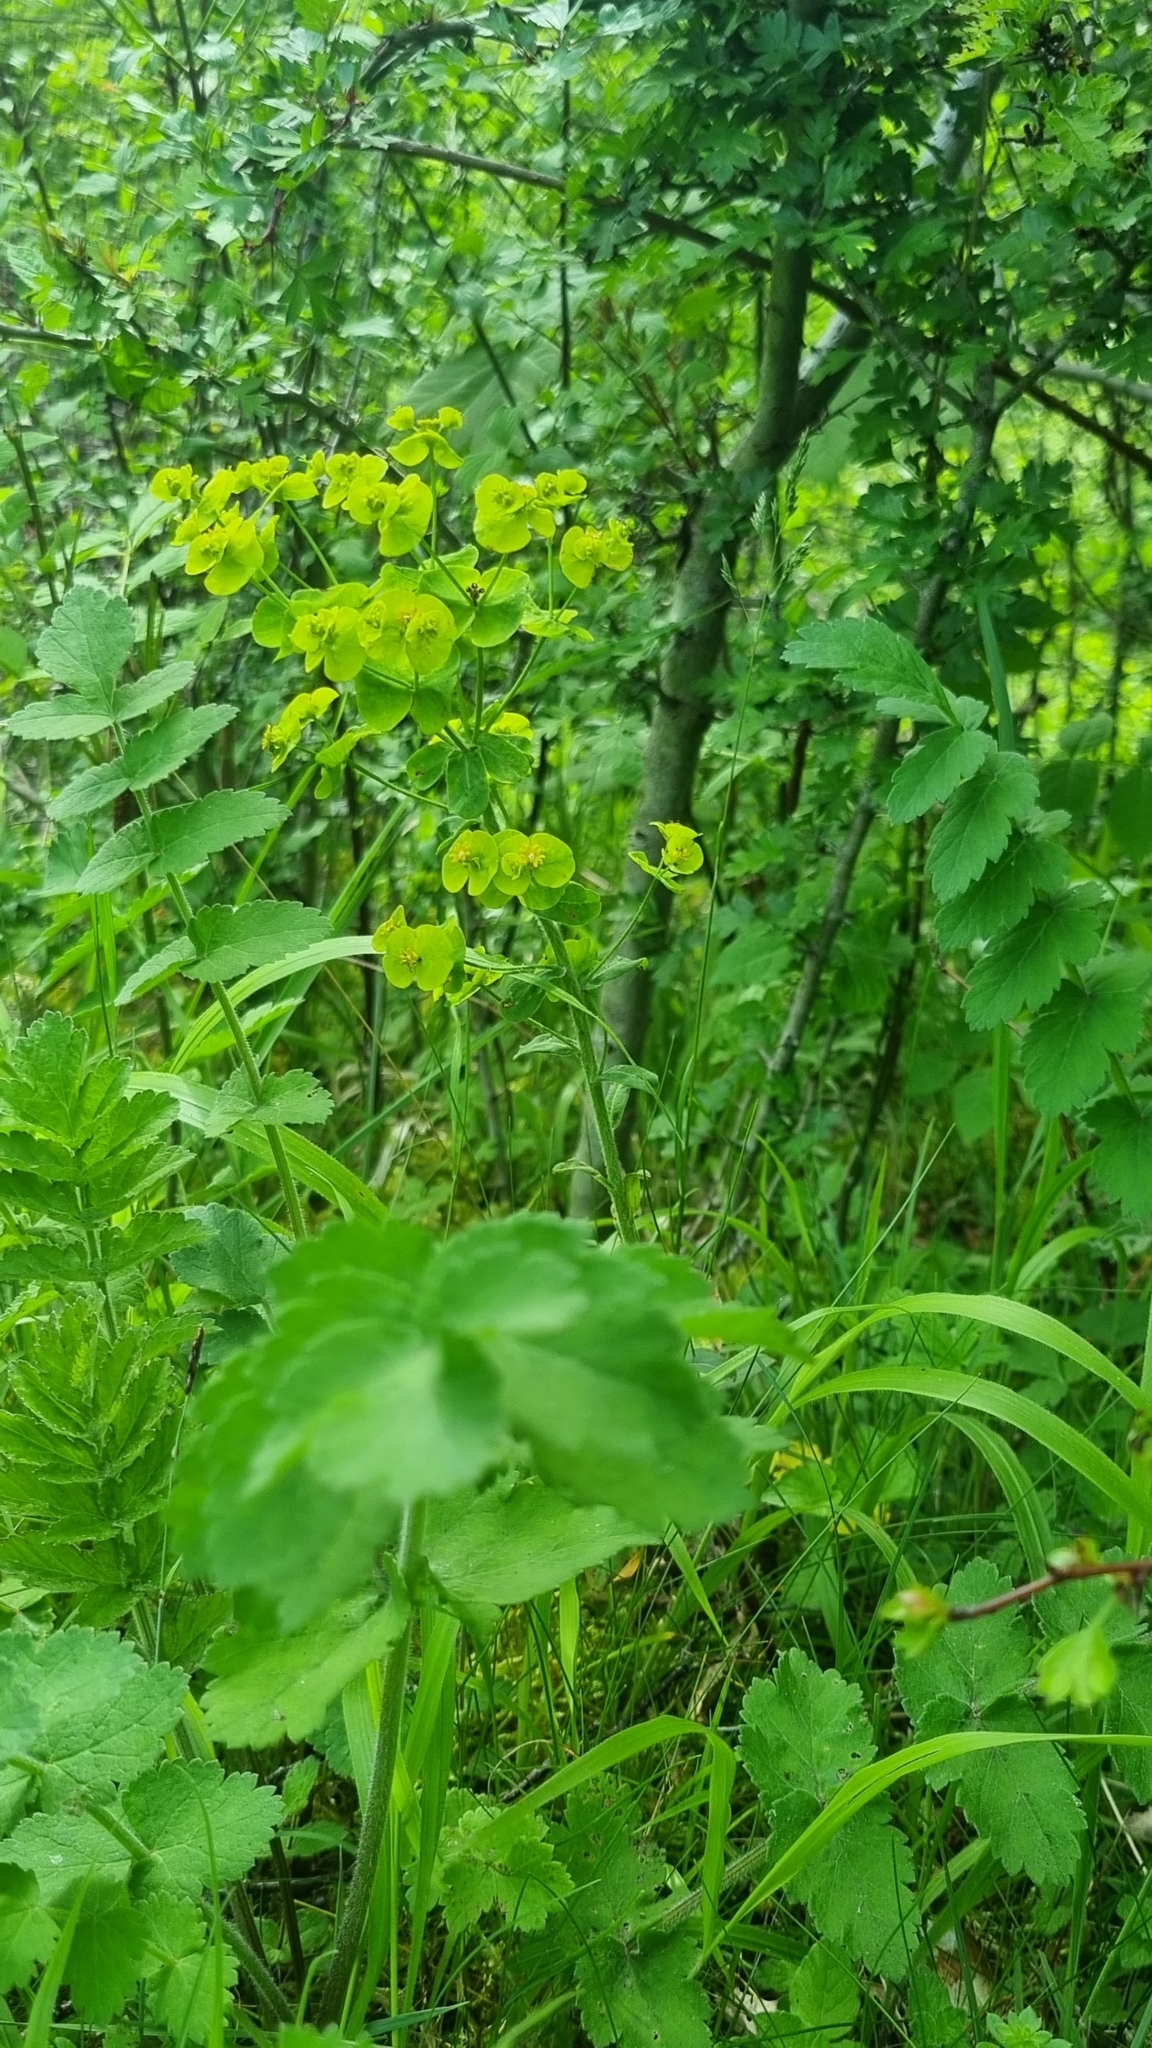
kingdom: Plantae
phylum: Tracheophyta
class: Magnoliopsida
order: Malpighiales
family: Euphorbiaceae
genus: Euphorbia
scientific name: Euphorbia amygdaloides
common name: Wood spurge
